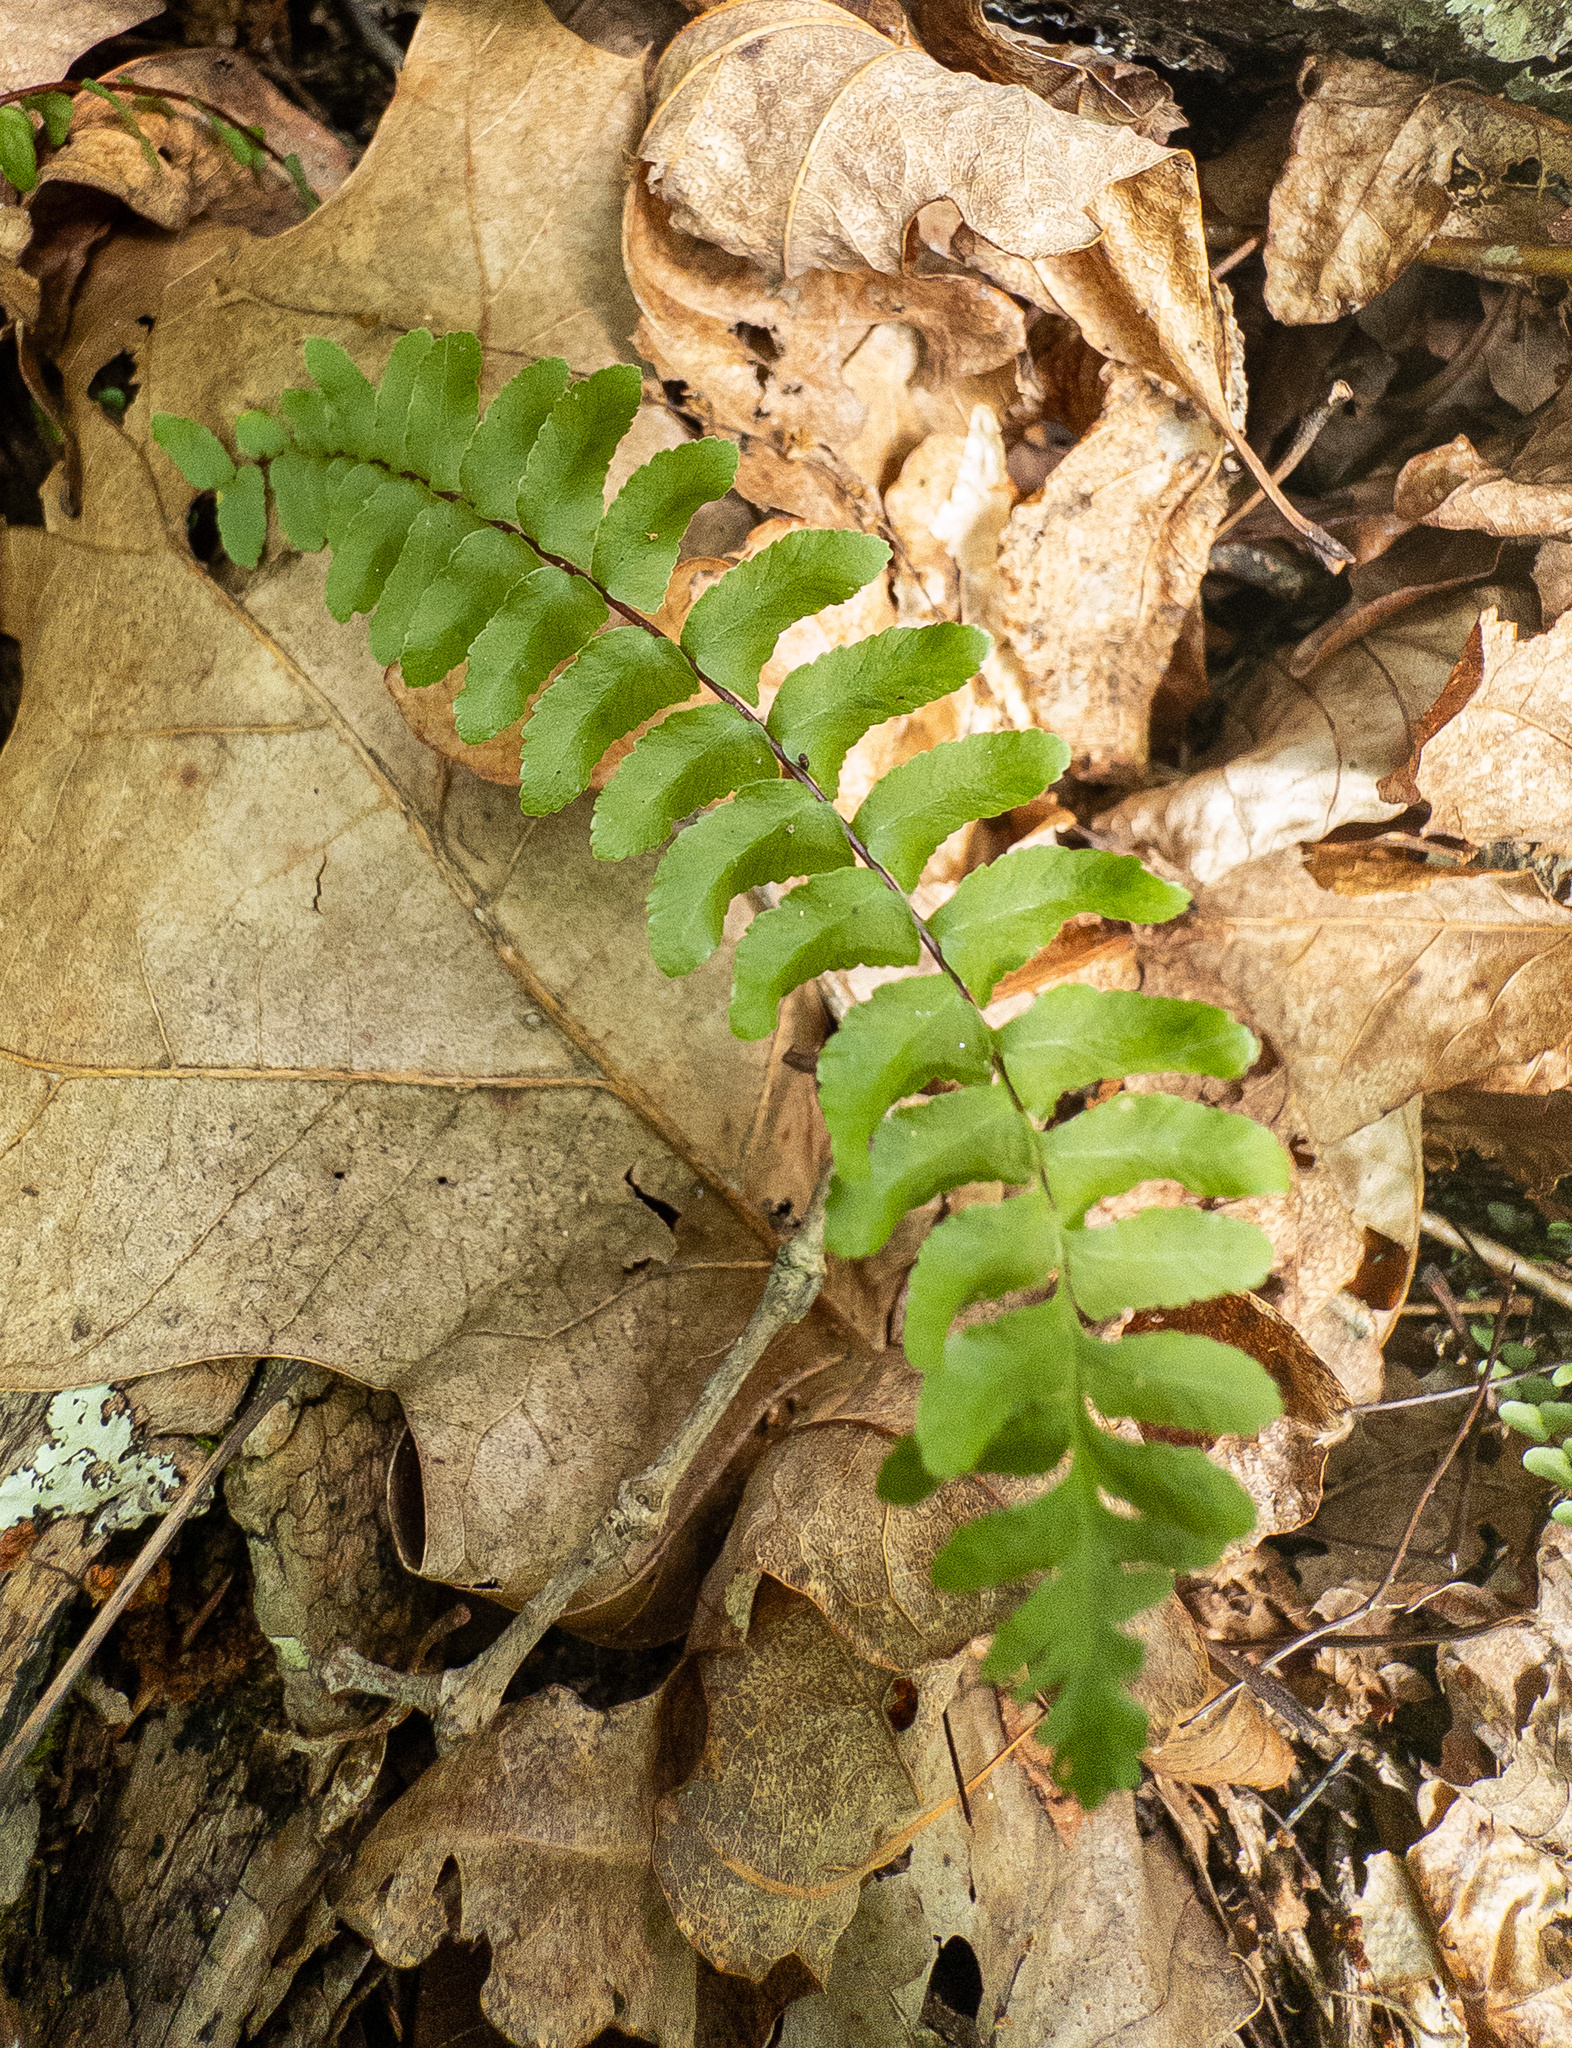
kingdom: Plantae
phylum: Tracheophyta
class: Polypodiopsida
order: Polypodiales
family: Aspleniaceae
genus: Asplenium
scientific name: Asplenium platyneuron
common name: Ebony spleenwort
